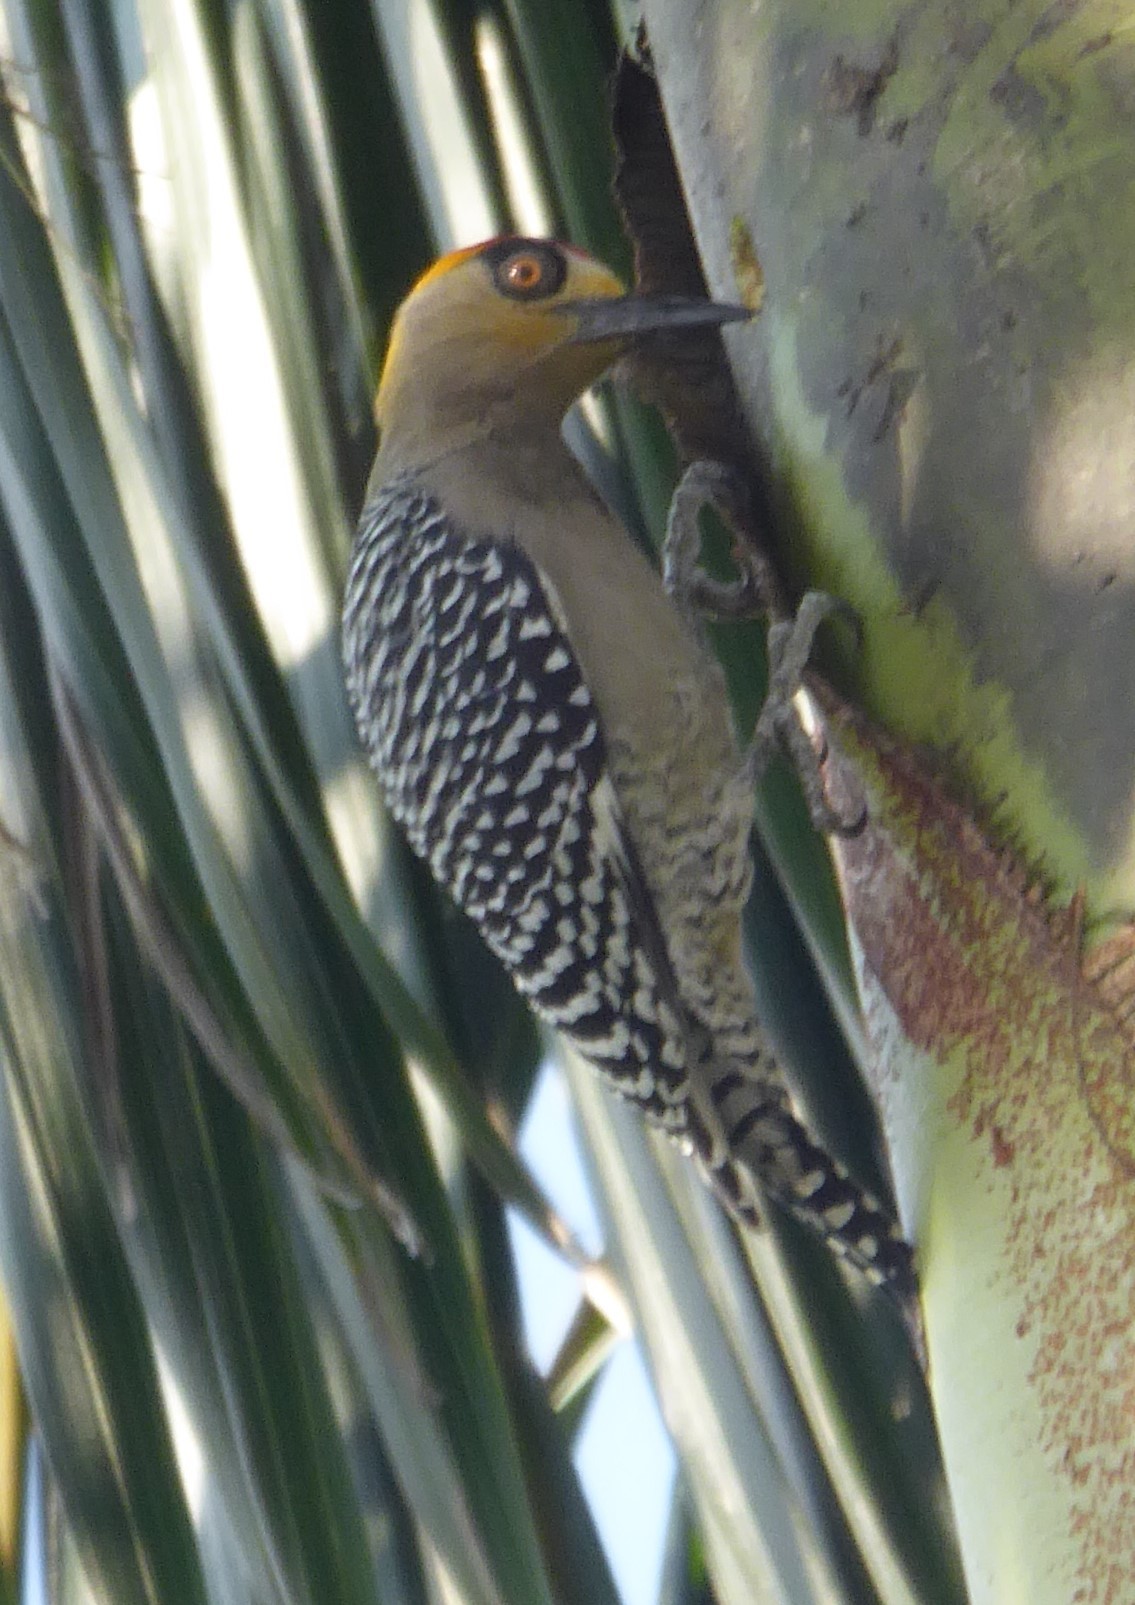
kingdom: Animalia
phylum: Chordata
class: Aves
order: Piciformes
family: Picidae
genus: Melanerpes
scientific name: Melanerpes chrysogenys
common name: Golden-cheeked woodpecker
